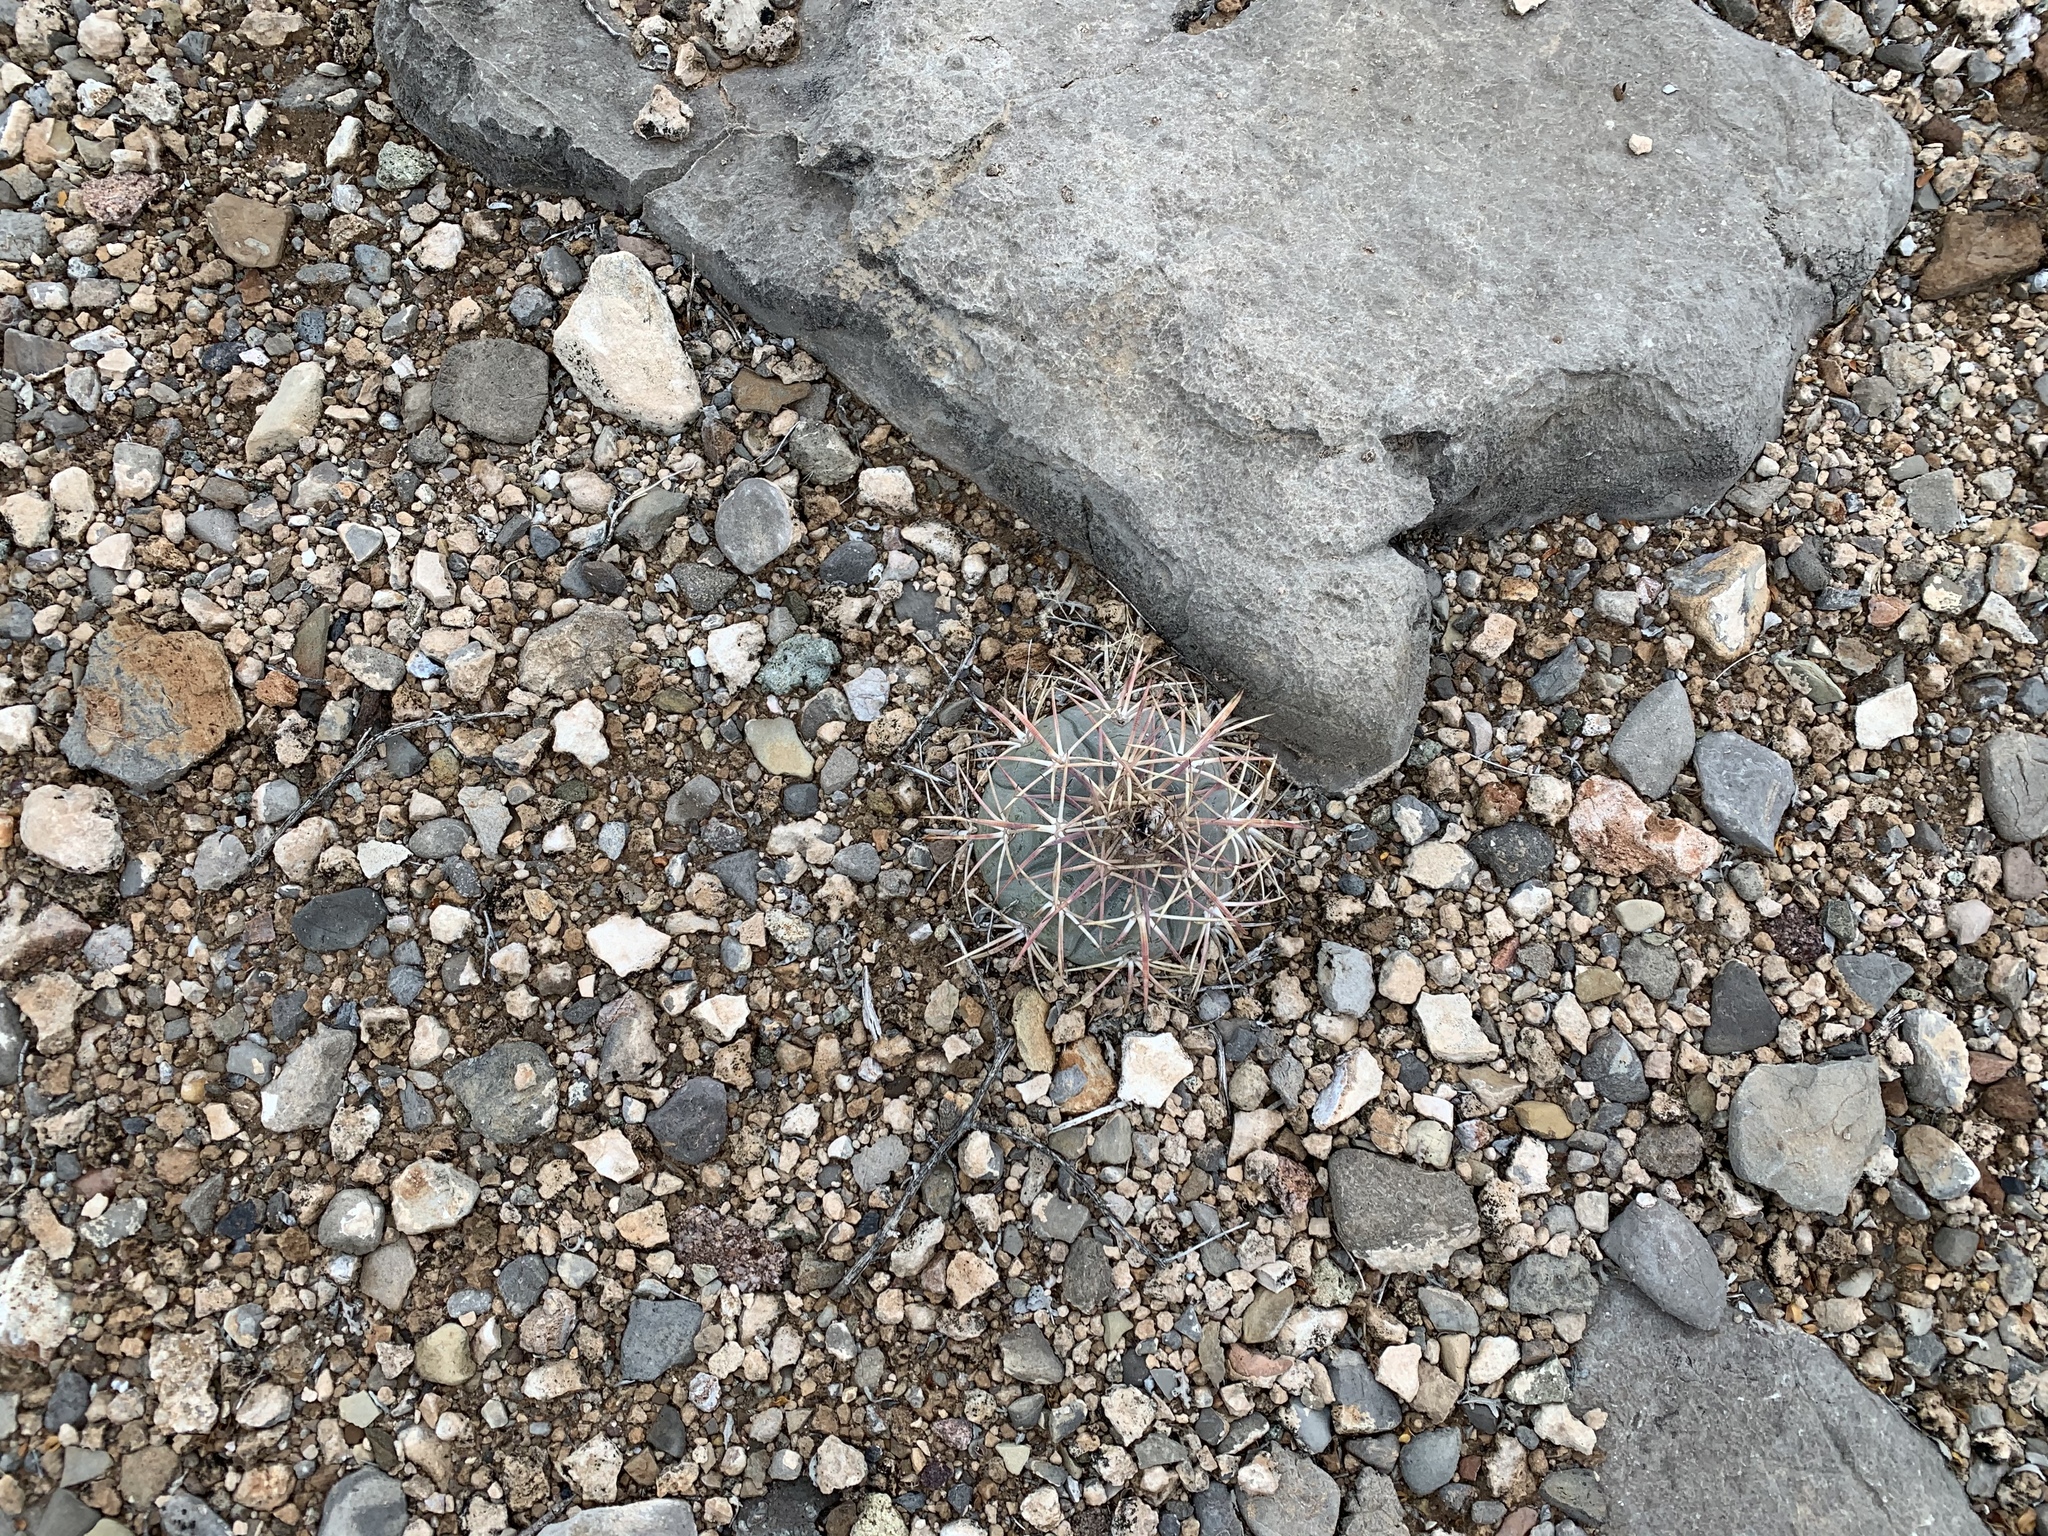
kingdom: Plantae
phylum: Tracheophyta
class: Magnoliopsida
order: Caryophyllales
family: Cactaceae
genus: Echinocactus
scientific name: Echinocactus horizonthalonius
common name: Devilshead
